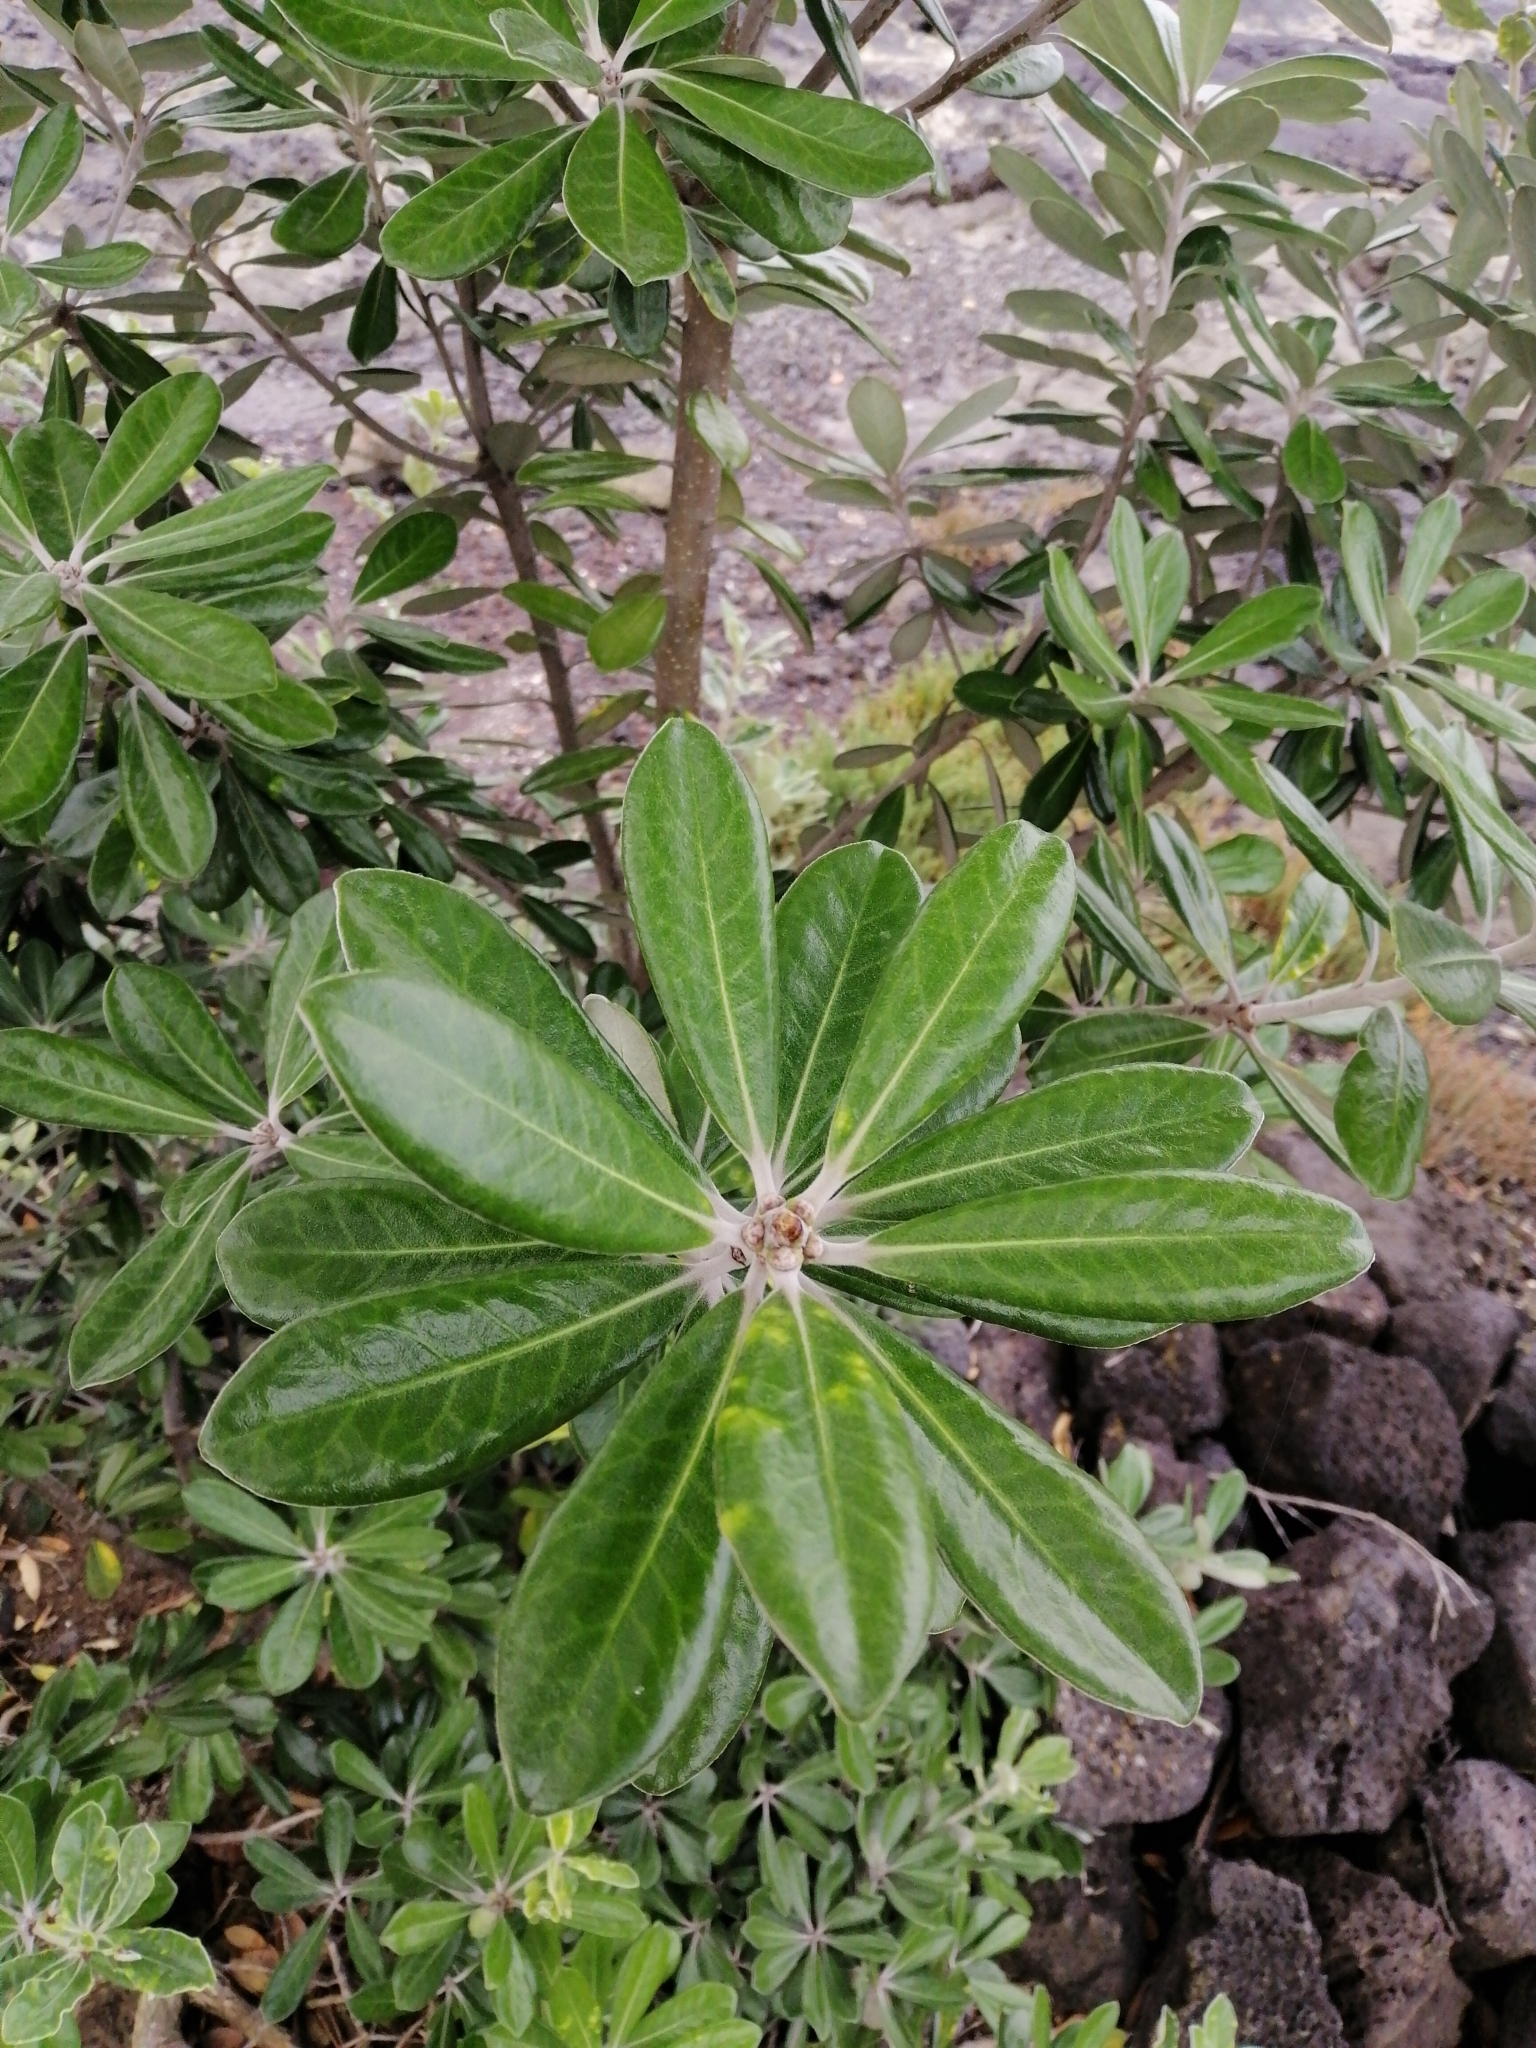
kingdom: Plantae
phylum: Tracheophyta
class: Magnoliopsida
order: Apiales
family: Pittosporaceae
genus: Pittosporum
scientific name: Pittosporum crassifolium
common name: Karo
